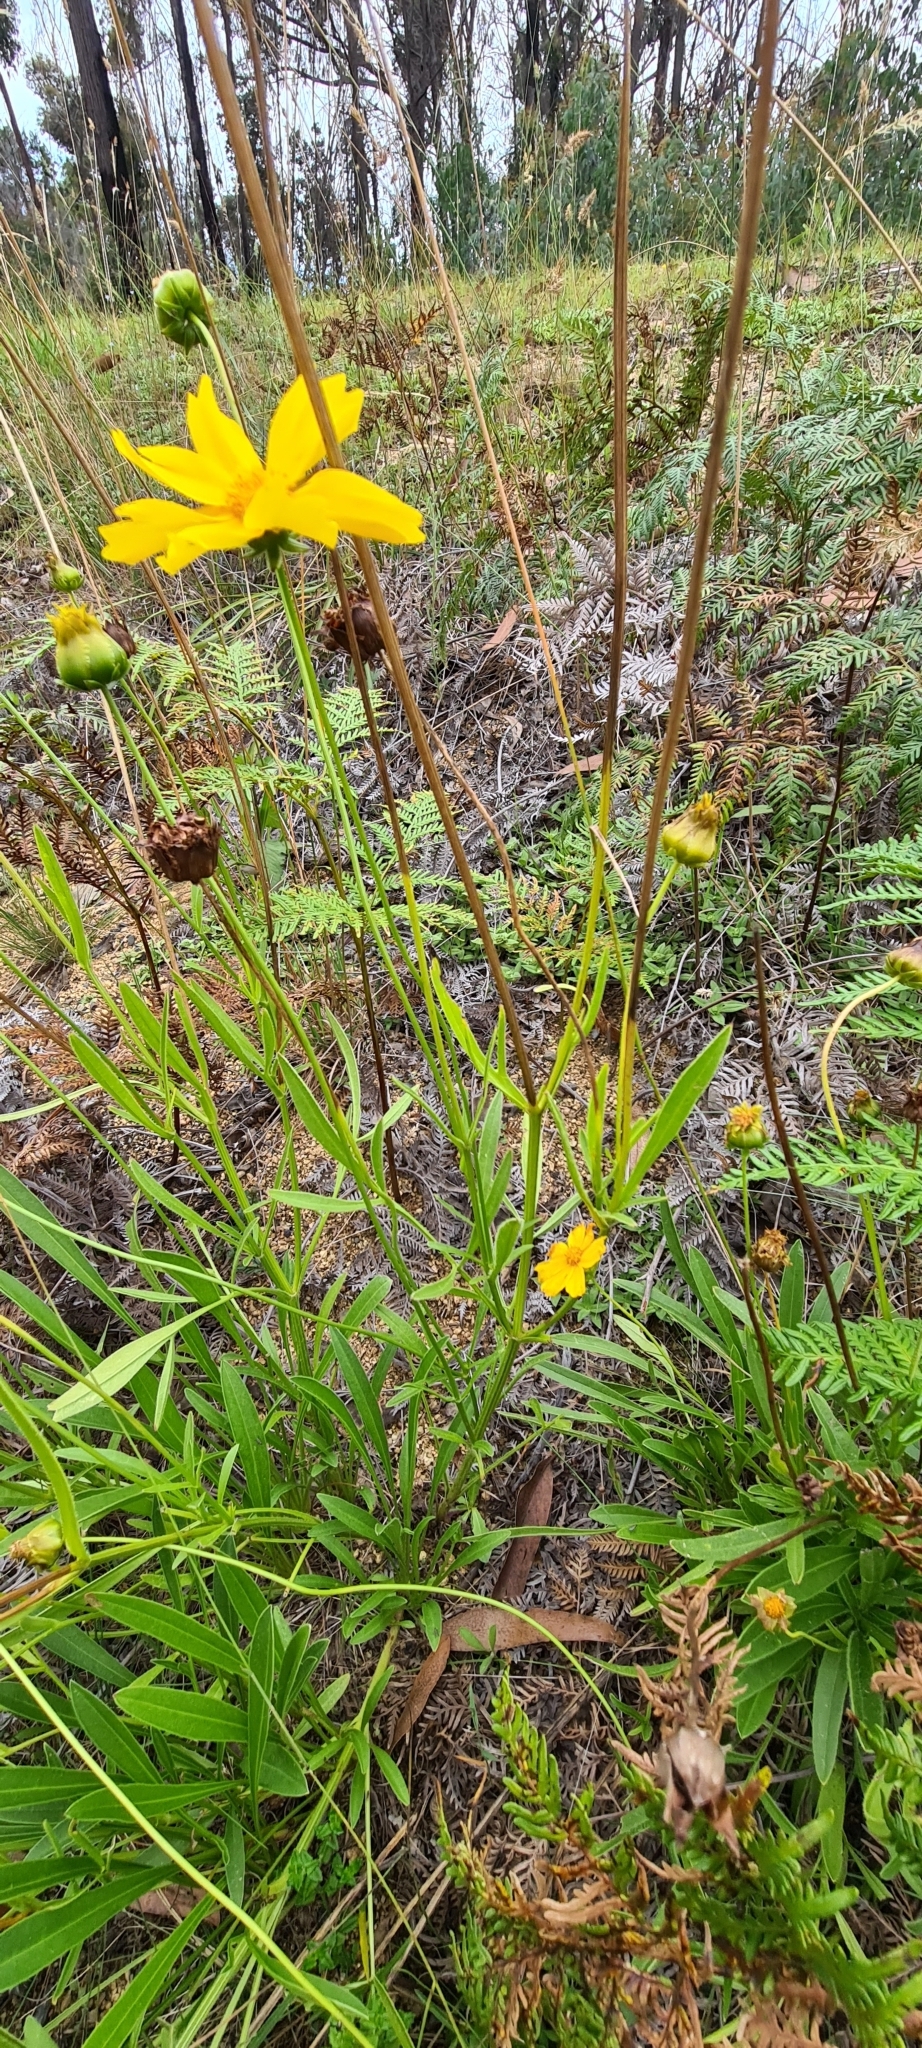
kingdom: Plantae
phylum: Tracheophyta
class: Magnoliopsida
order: Asterales
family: Asteraceae
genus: Coreopsis
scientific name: Coreopsis lanceolata
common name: Garden coreopsis
